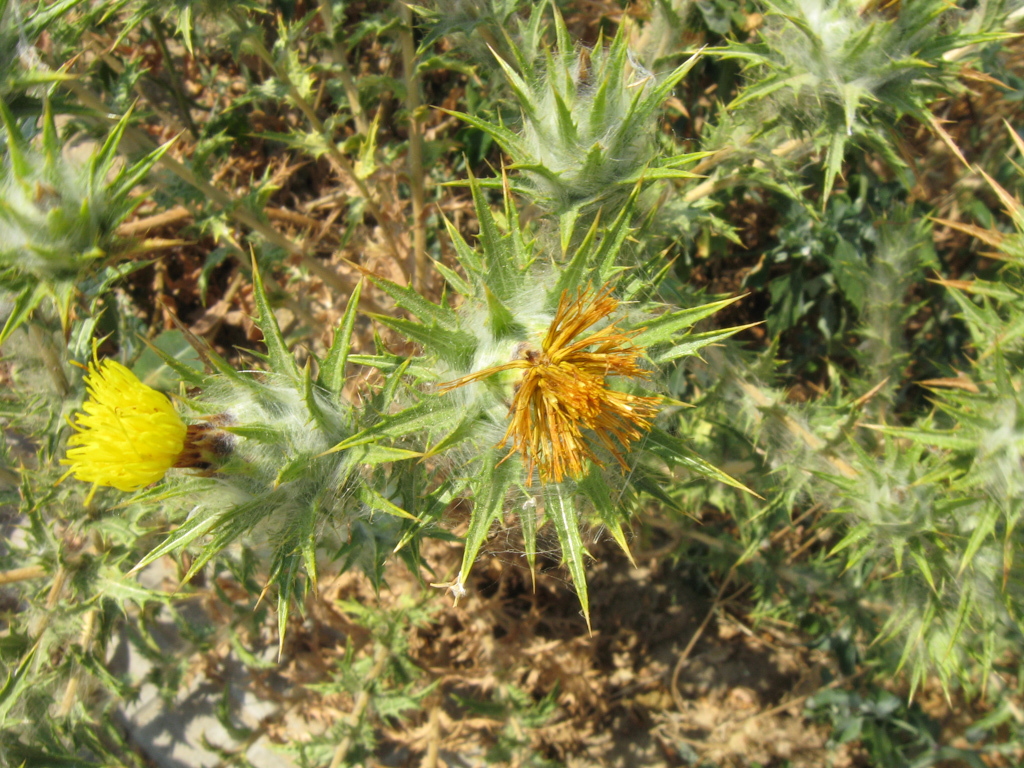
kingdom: Plantae
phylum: Tracheophyta
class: Magnoliopsida
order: Asterales
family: Asteraceae
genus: Carthamus
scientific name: Carthamus lanatus
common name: Downy safflower
